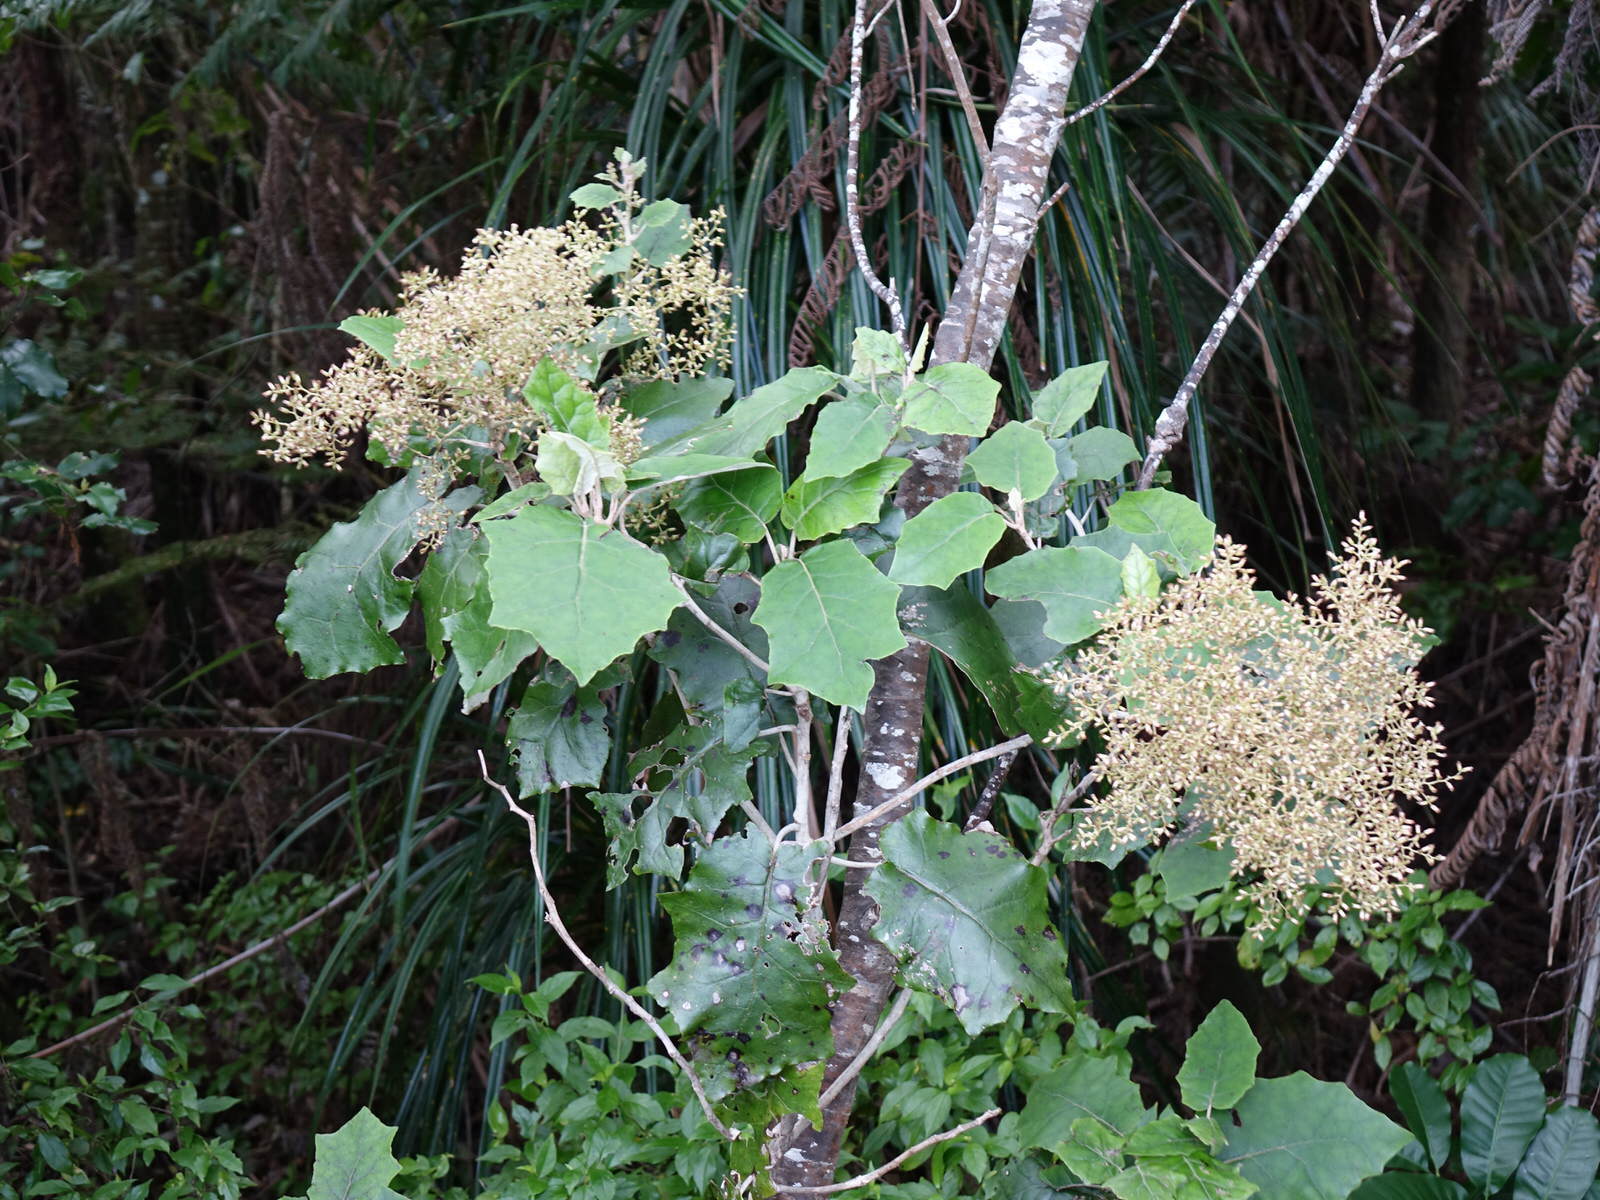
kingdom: Plantae
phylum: Tracheophyta
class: Magnoliopsida
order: Asterales
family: Asteraceae
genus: Brachyglottis
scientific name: Brachyglottis repanda
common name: Hedge ragwort
